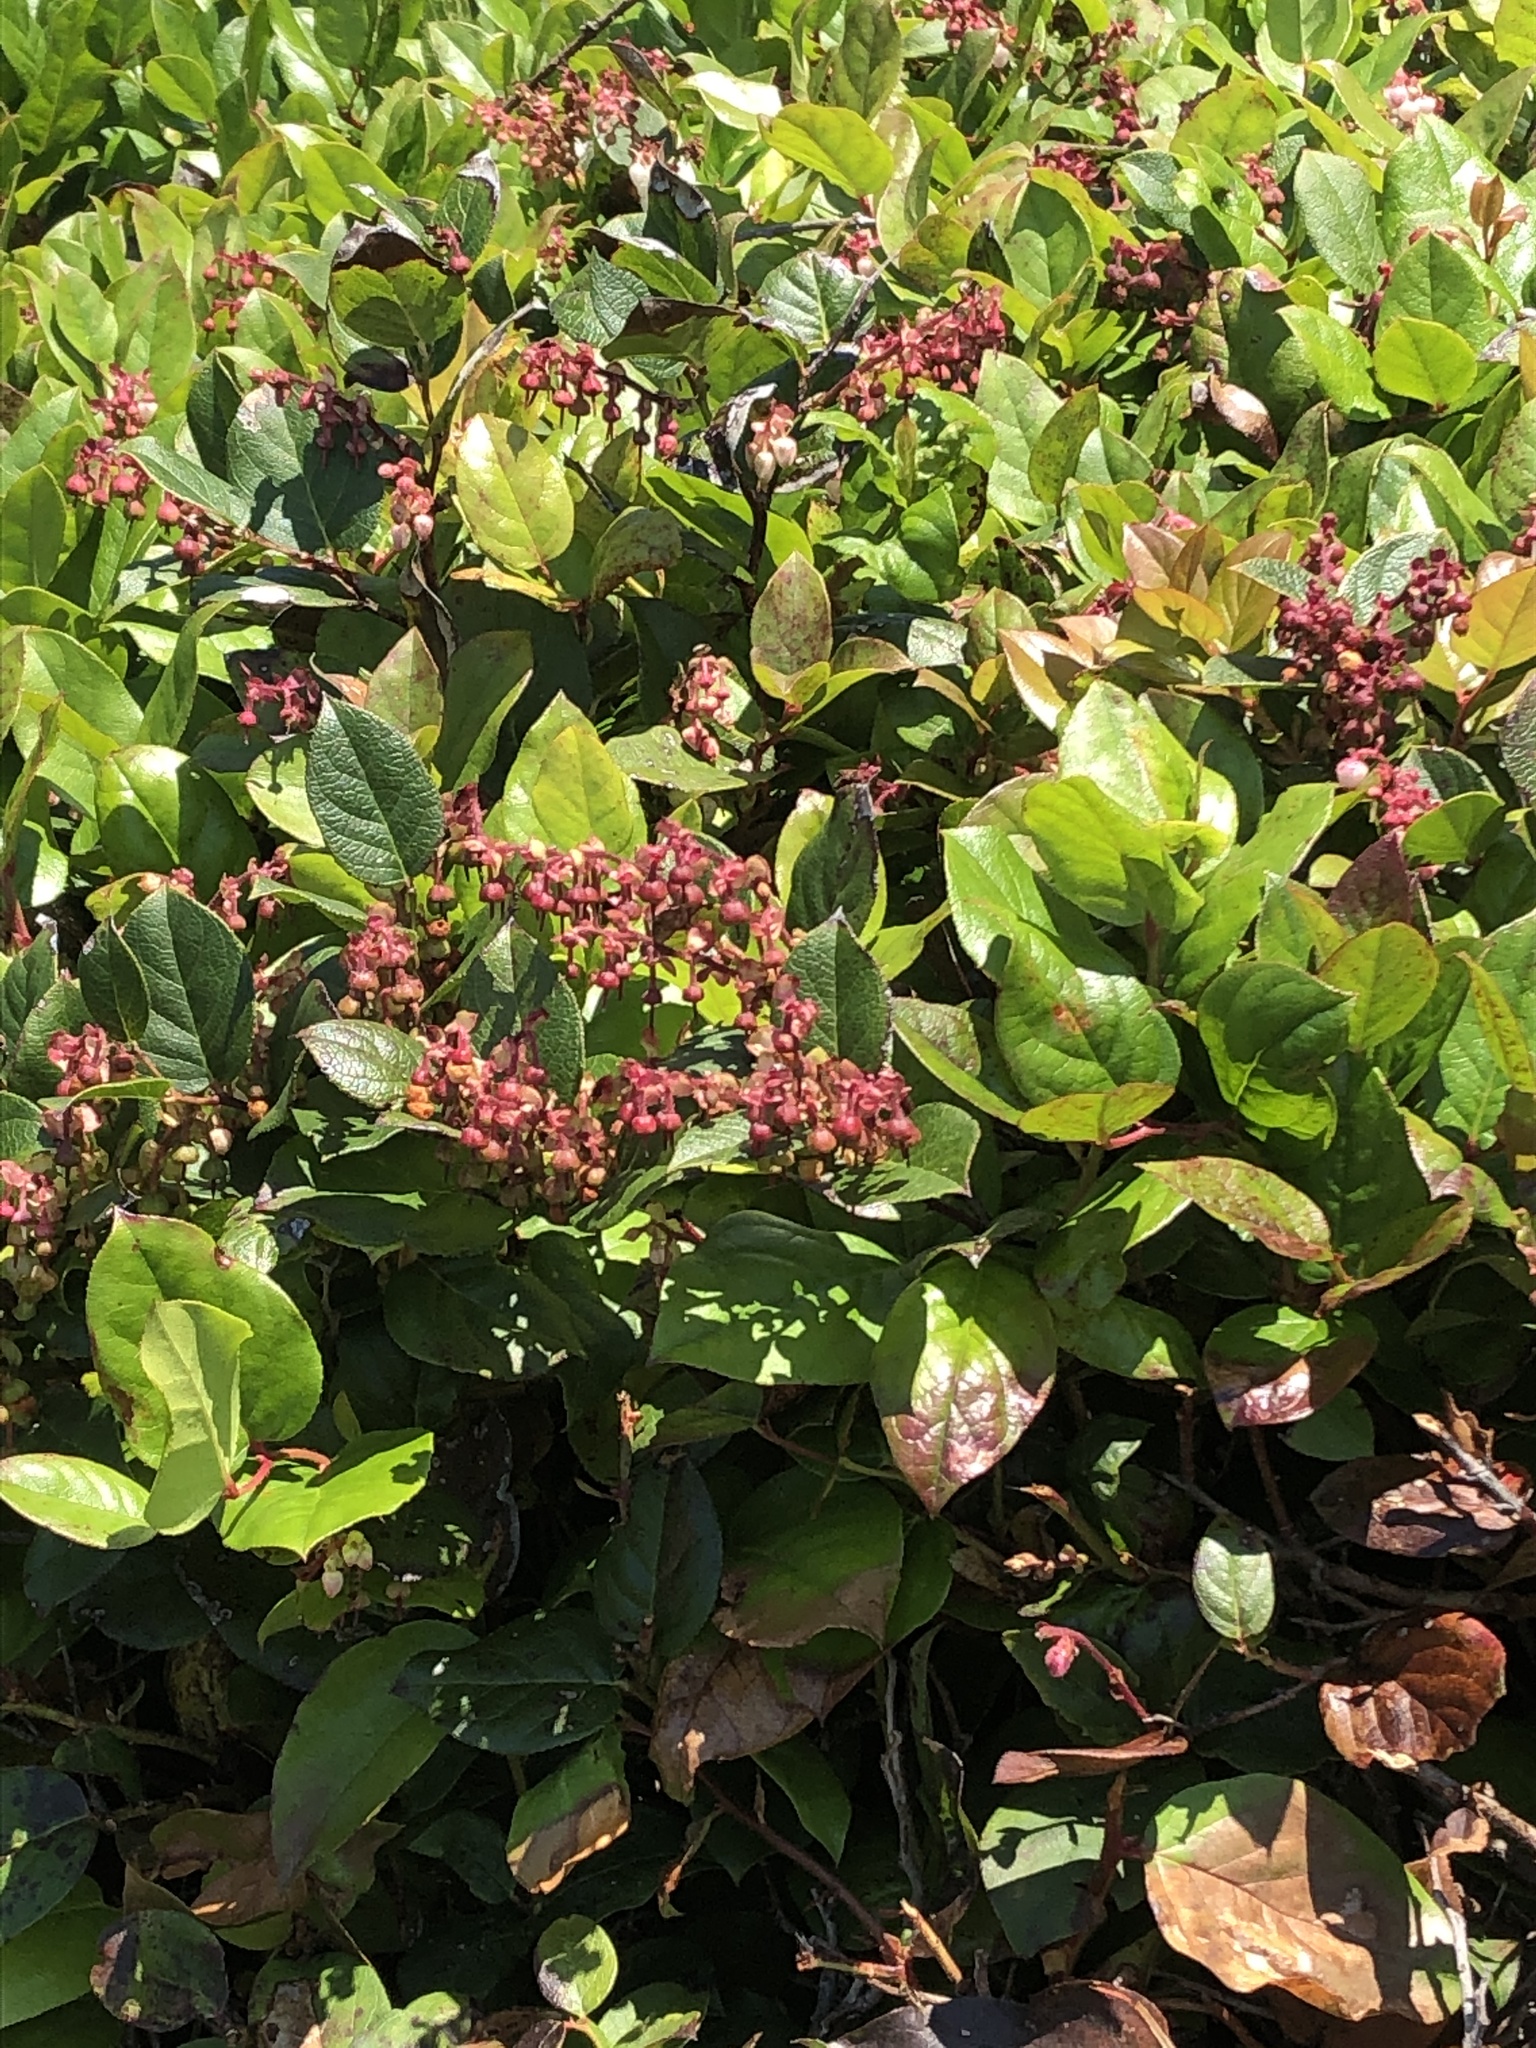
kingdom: Plantae
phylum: Tracheophyta
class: Magnoliopsida
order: Ericales
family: Ericaceae
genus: Gaultheria
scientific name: Gaultheria shallon
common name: Shallon
